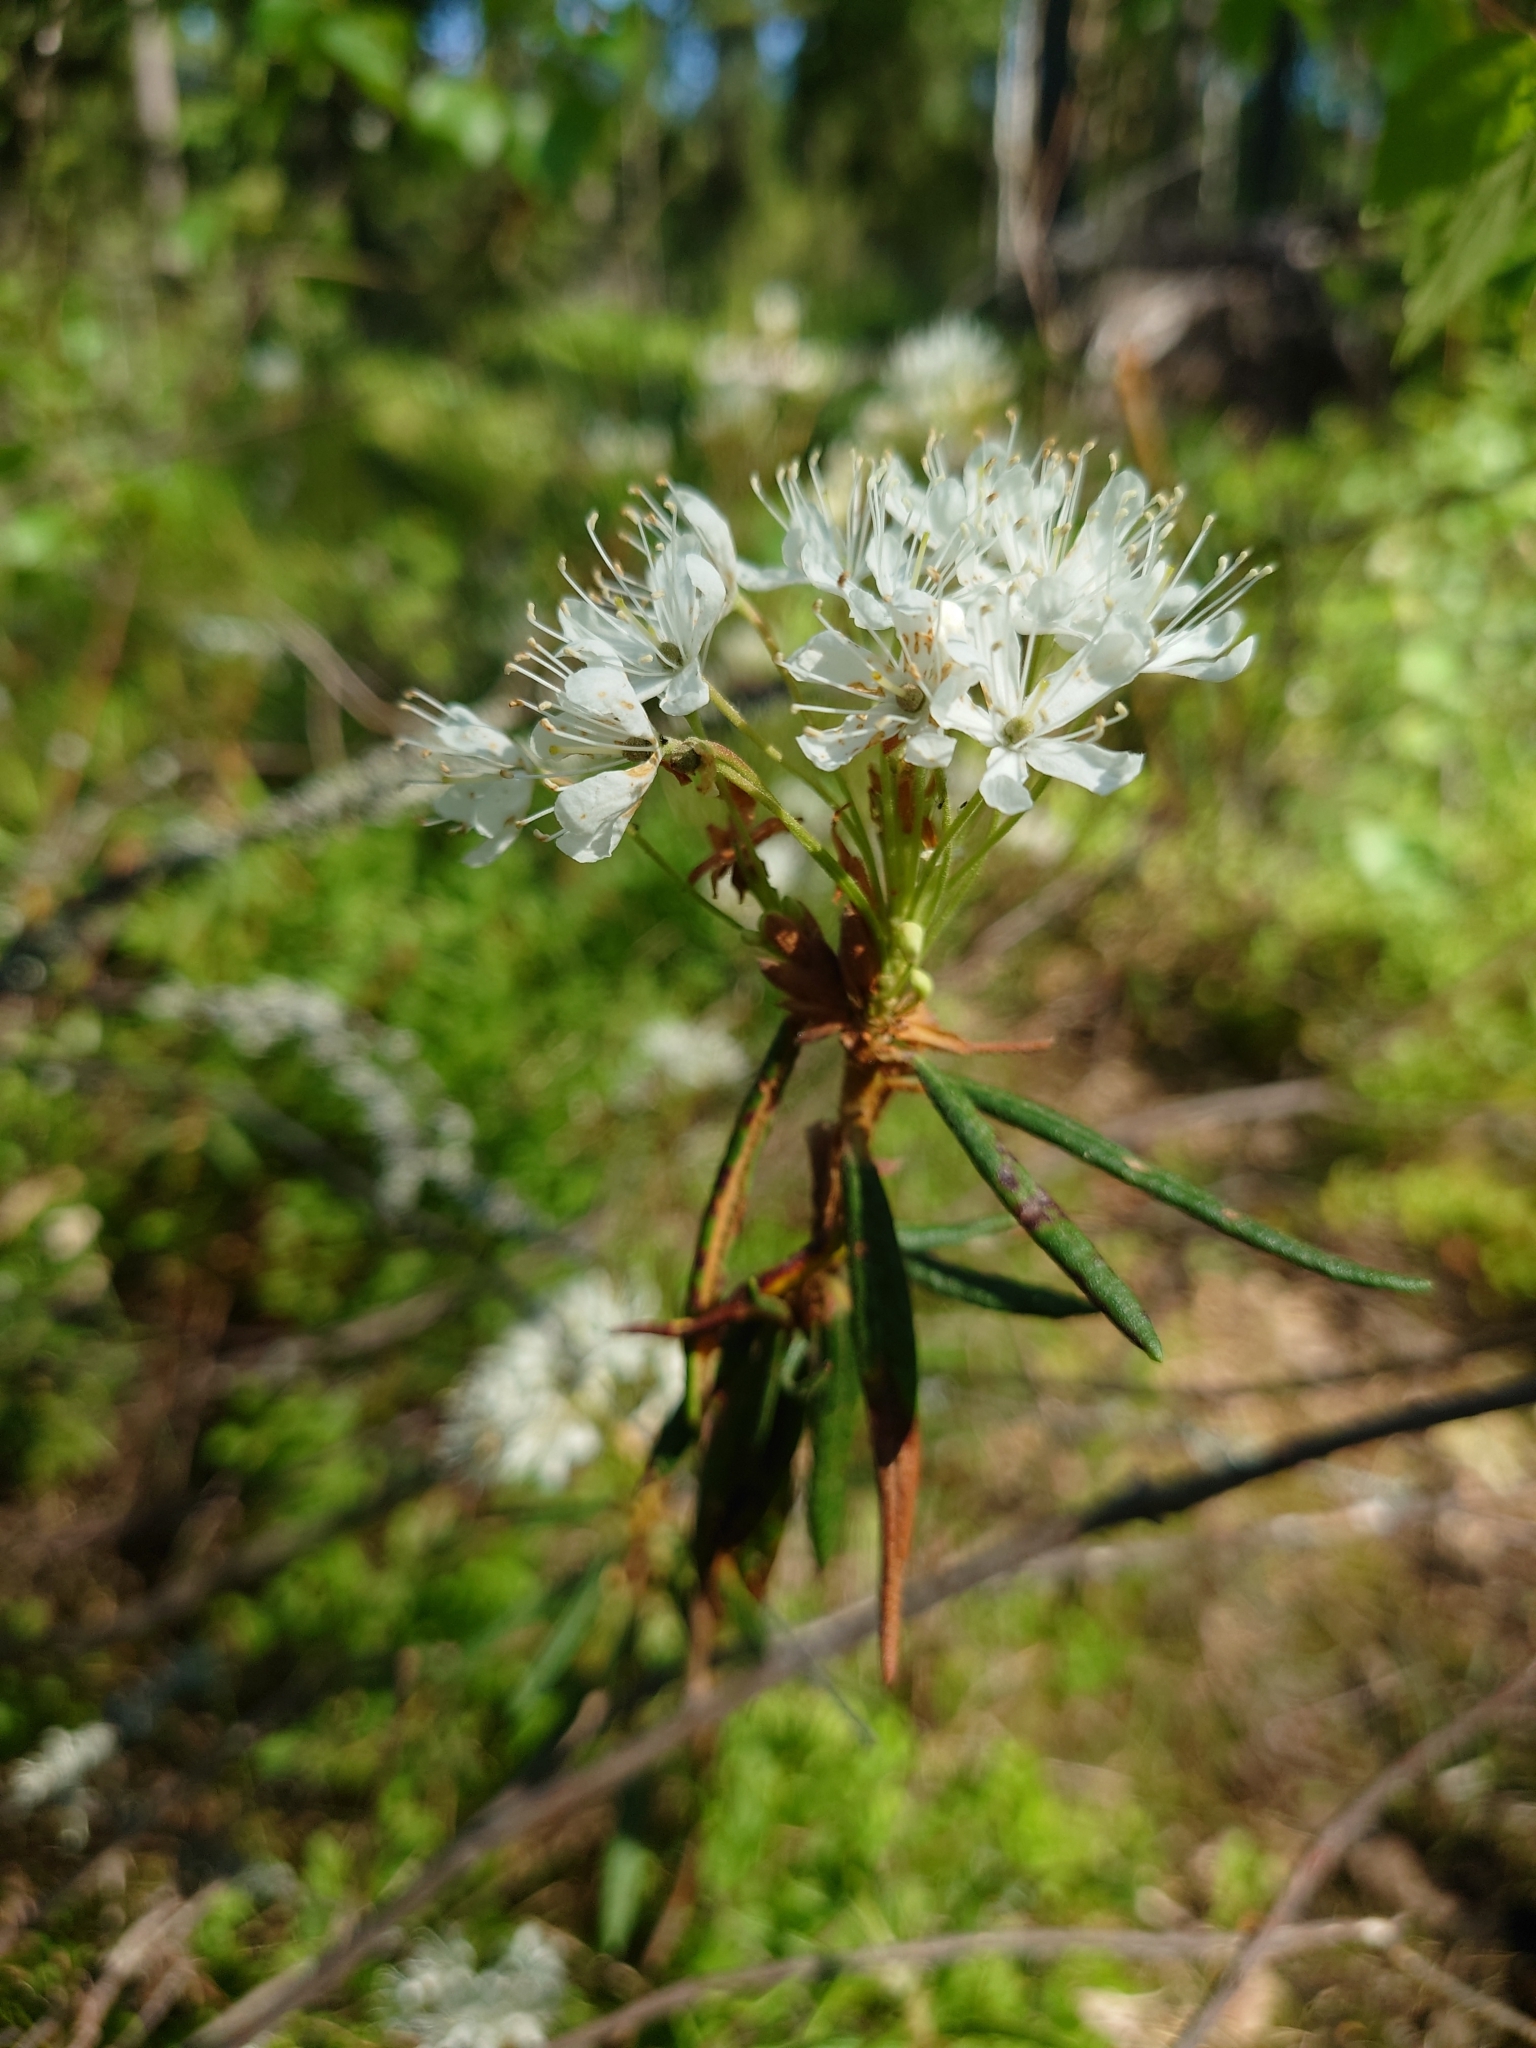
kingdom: Plantae
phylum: Tracheophyta
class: Magnoliopsida
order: Ericales
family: Ericaceae
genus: Rhododendron
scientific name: Rhododendron tomentosum
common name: Marsh labrador tea
